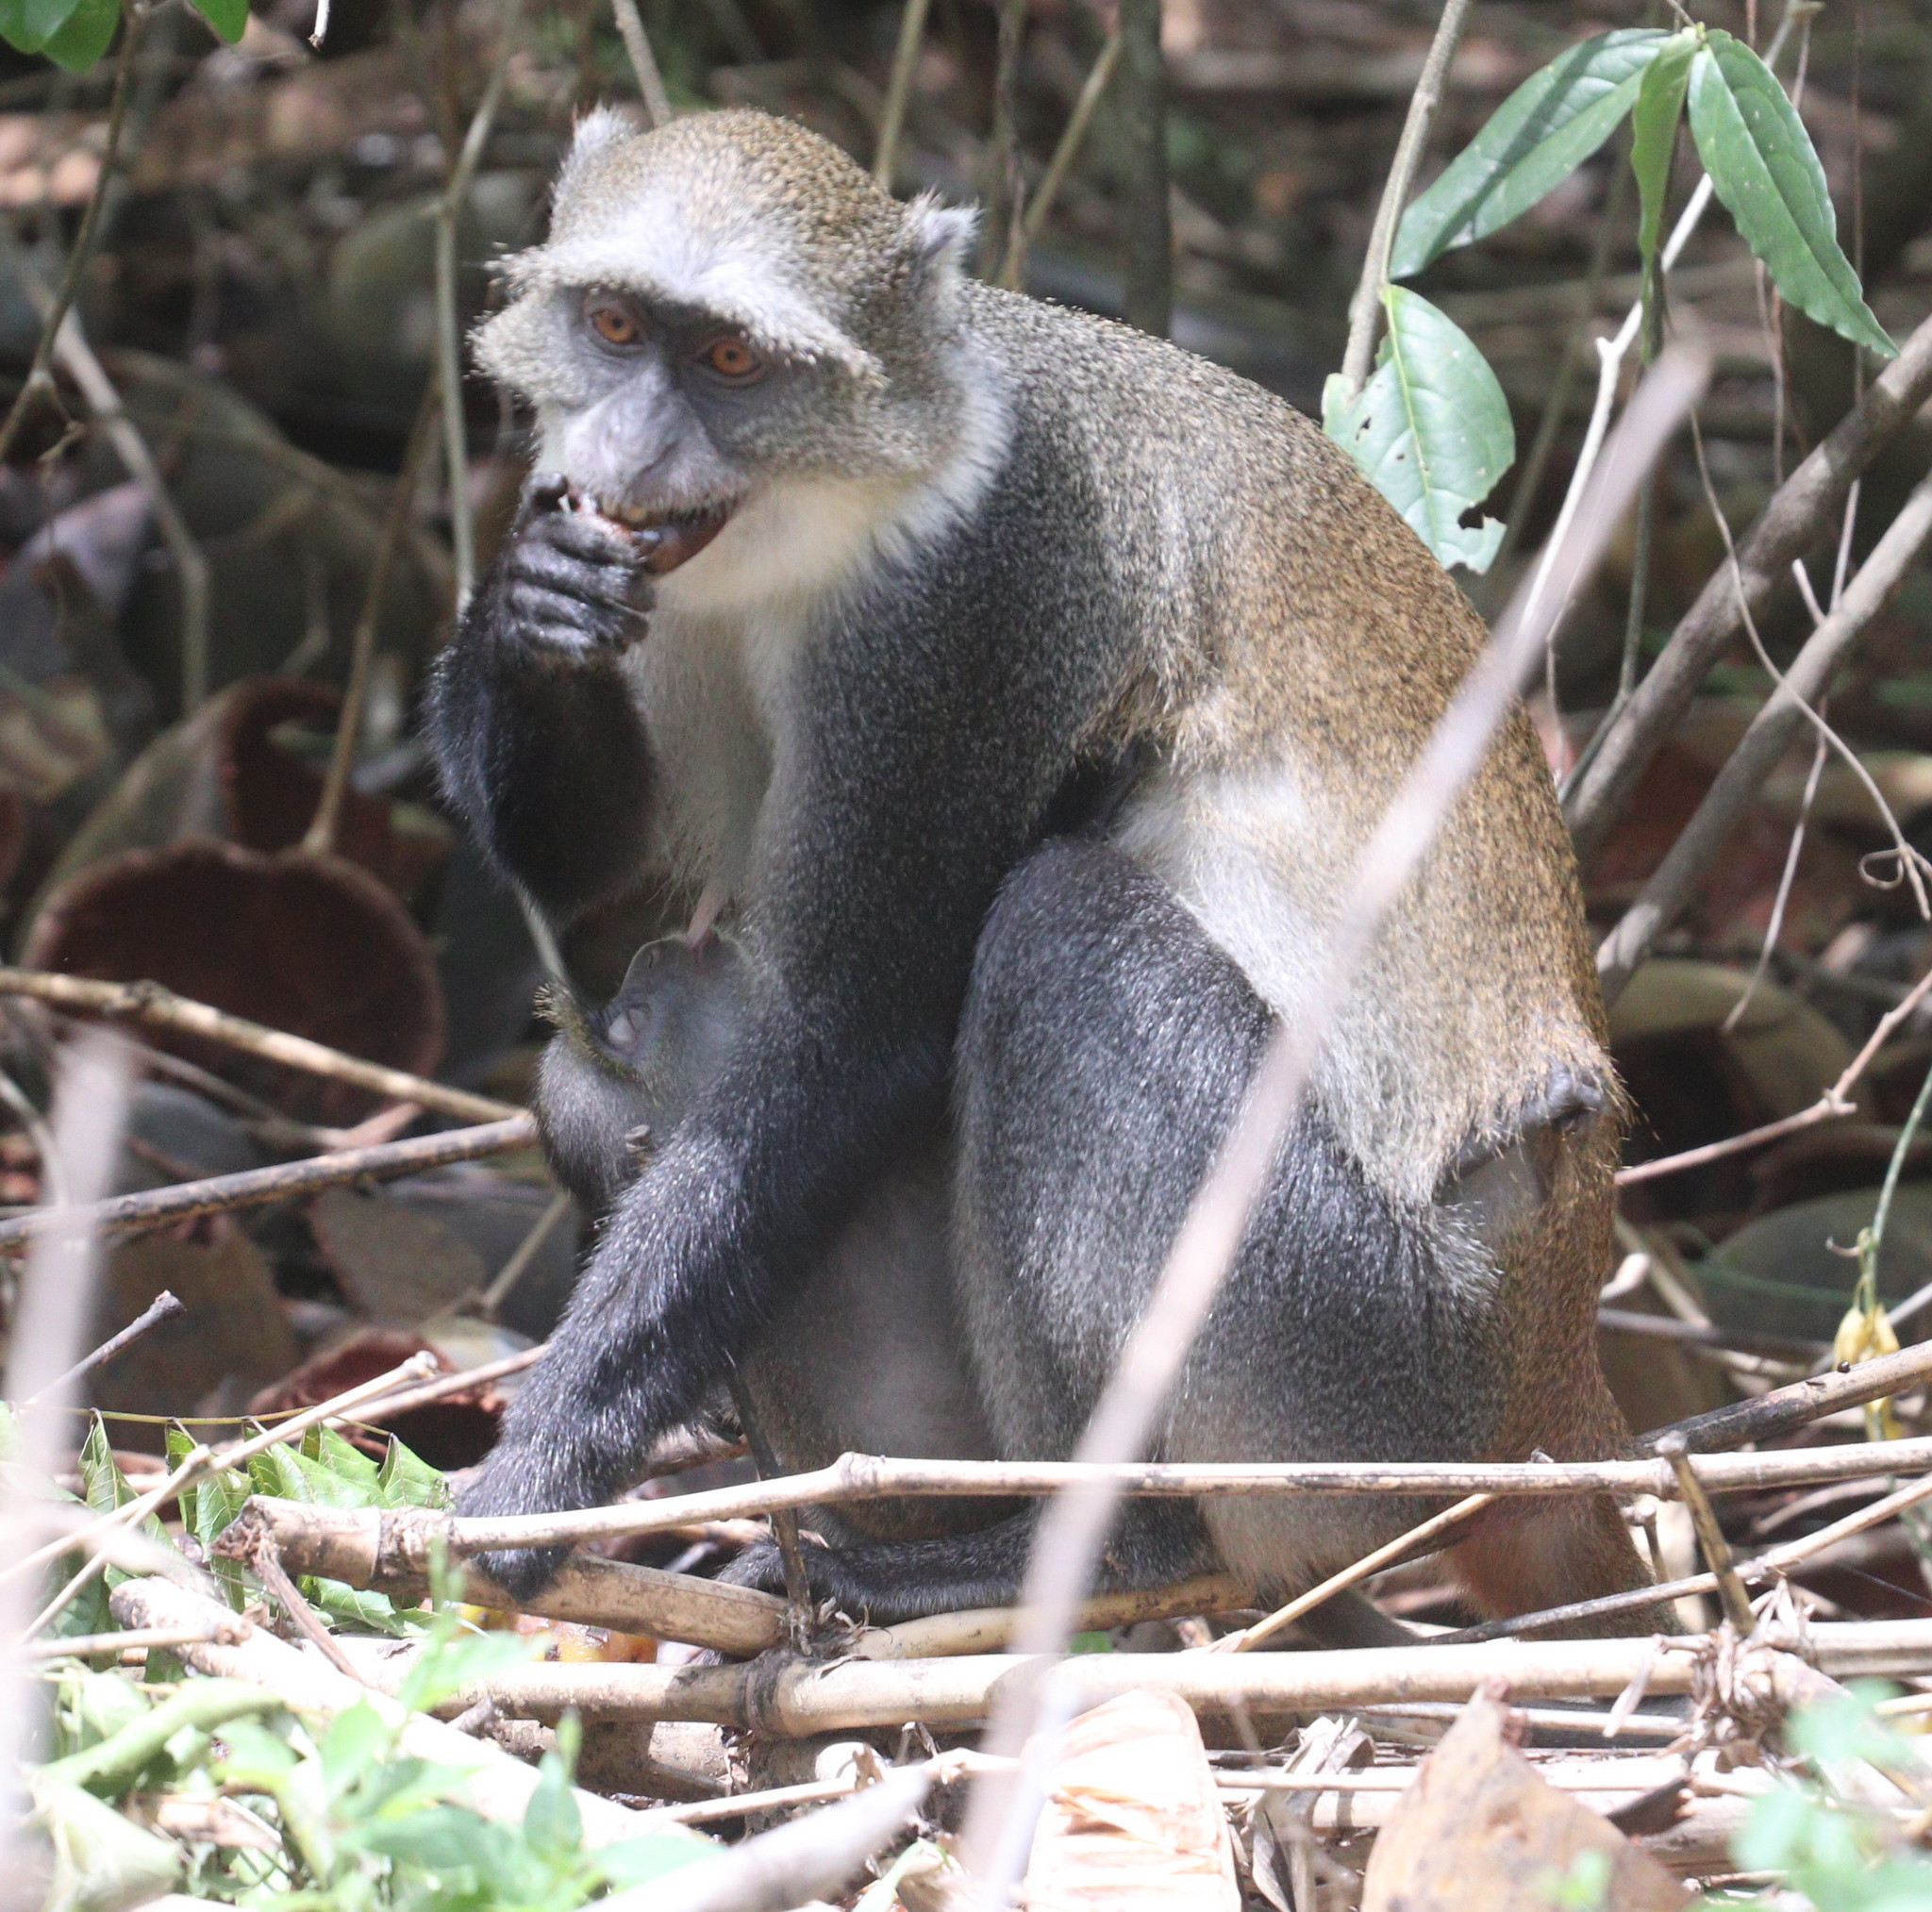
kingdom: Animalia
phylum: Chordata
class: Mammalia
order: Primates
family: Cercopithecidae
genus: Cercopithecus
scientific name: Cercopithecus mitis
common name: Blue monkey
